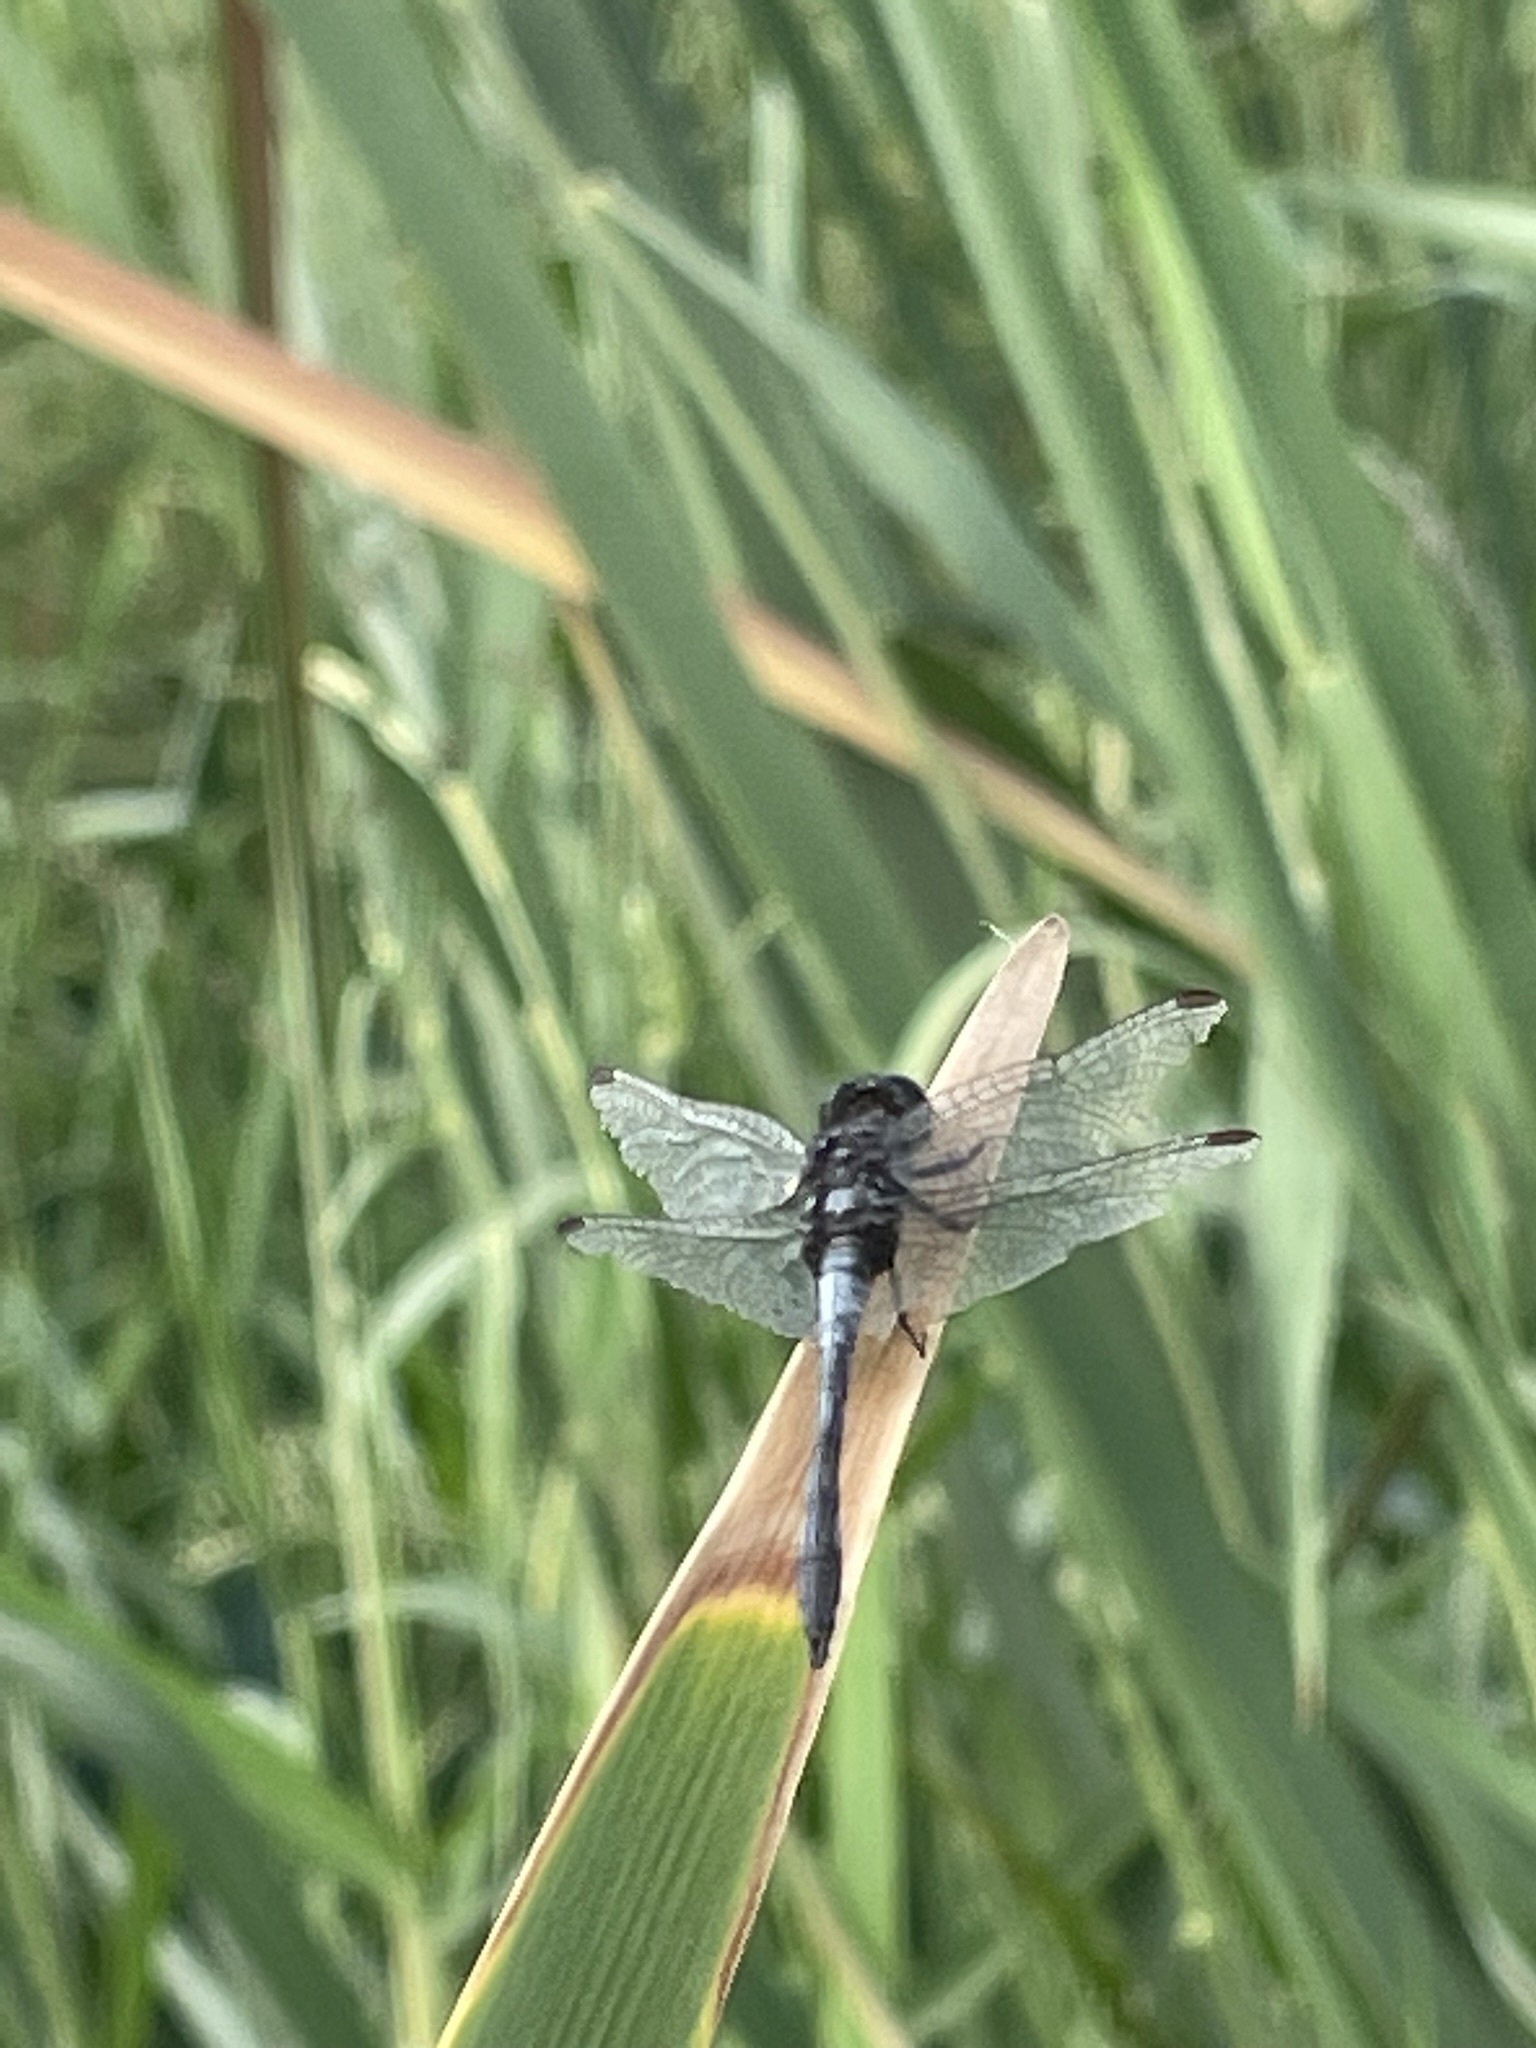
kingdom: Animalia
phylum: Arthropoda
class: Insecta
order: Odonata
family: Libellulidae
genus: Erythrodiplax
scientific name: Erythrodiplax cleopatra
